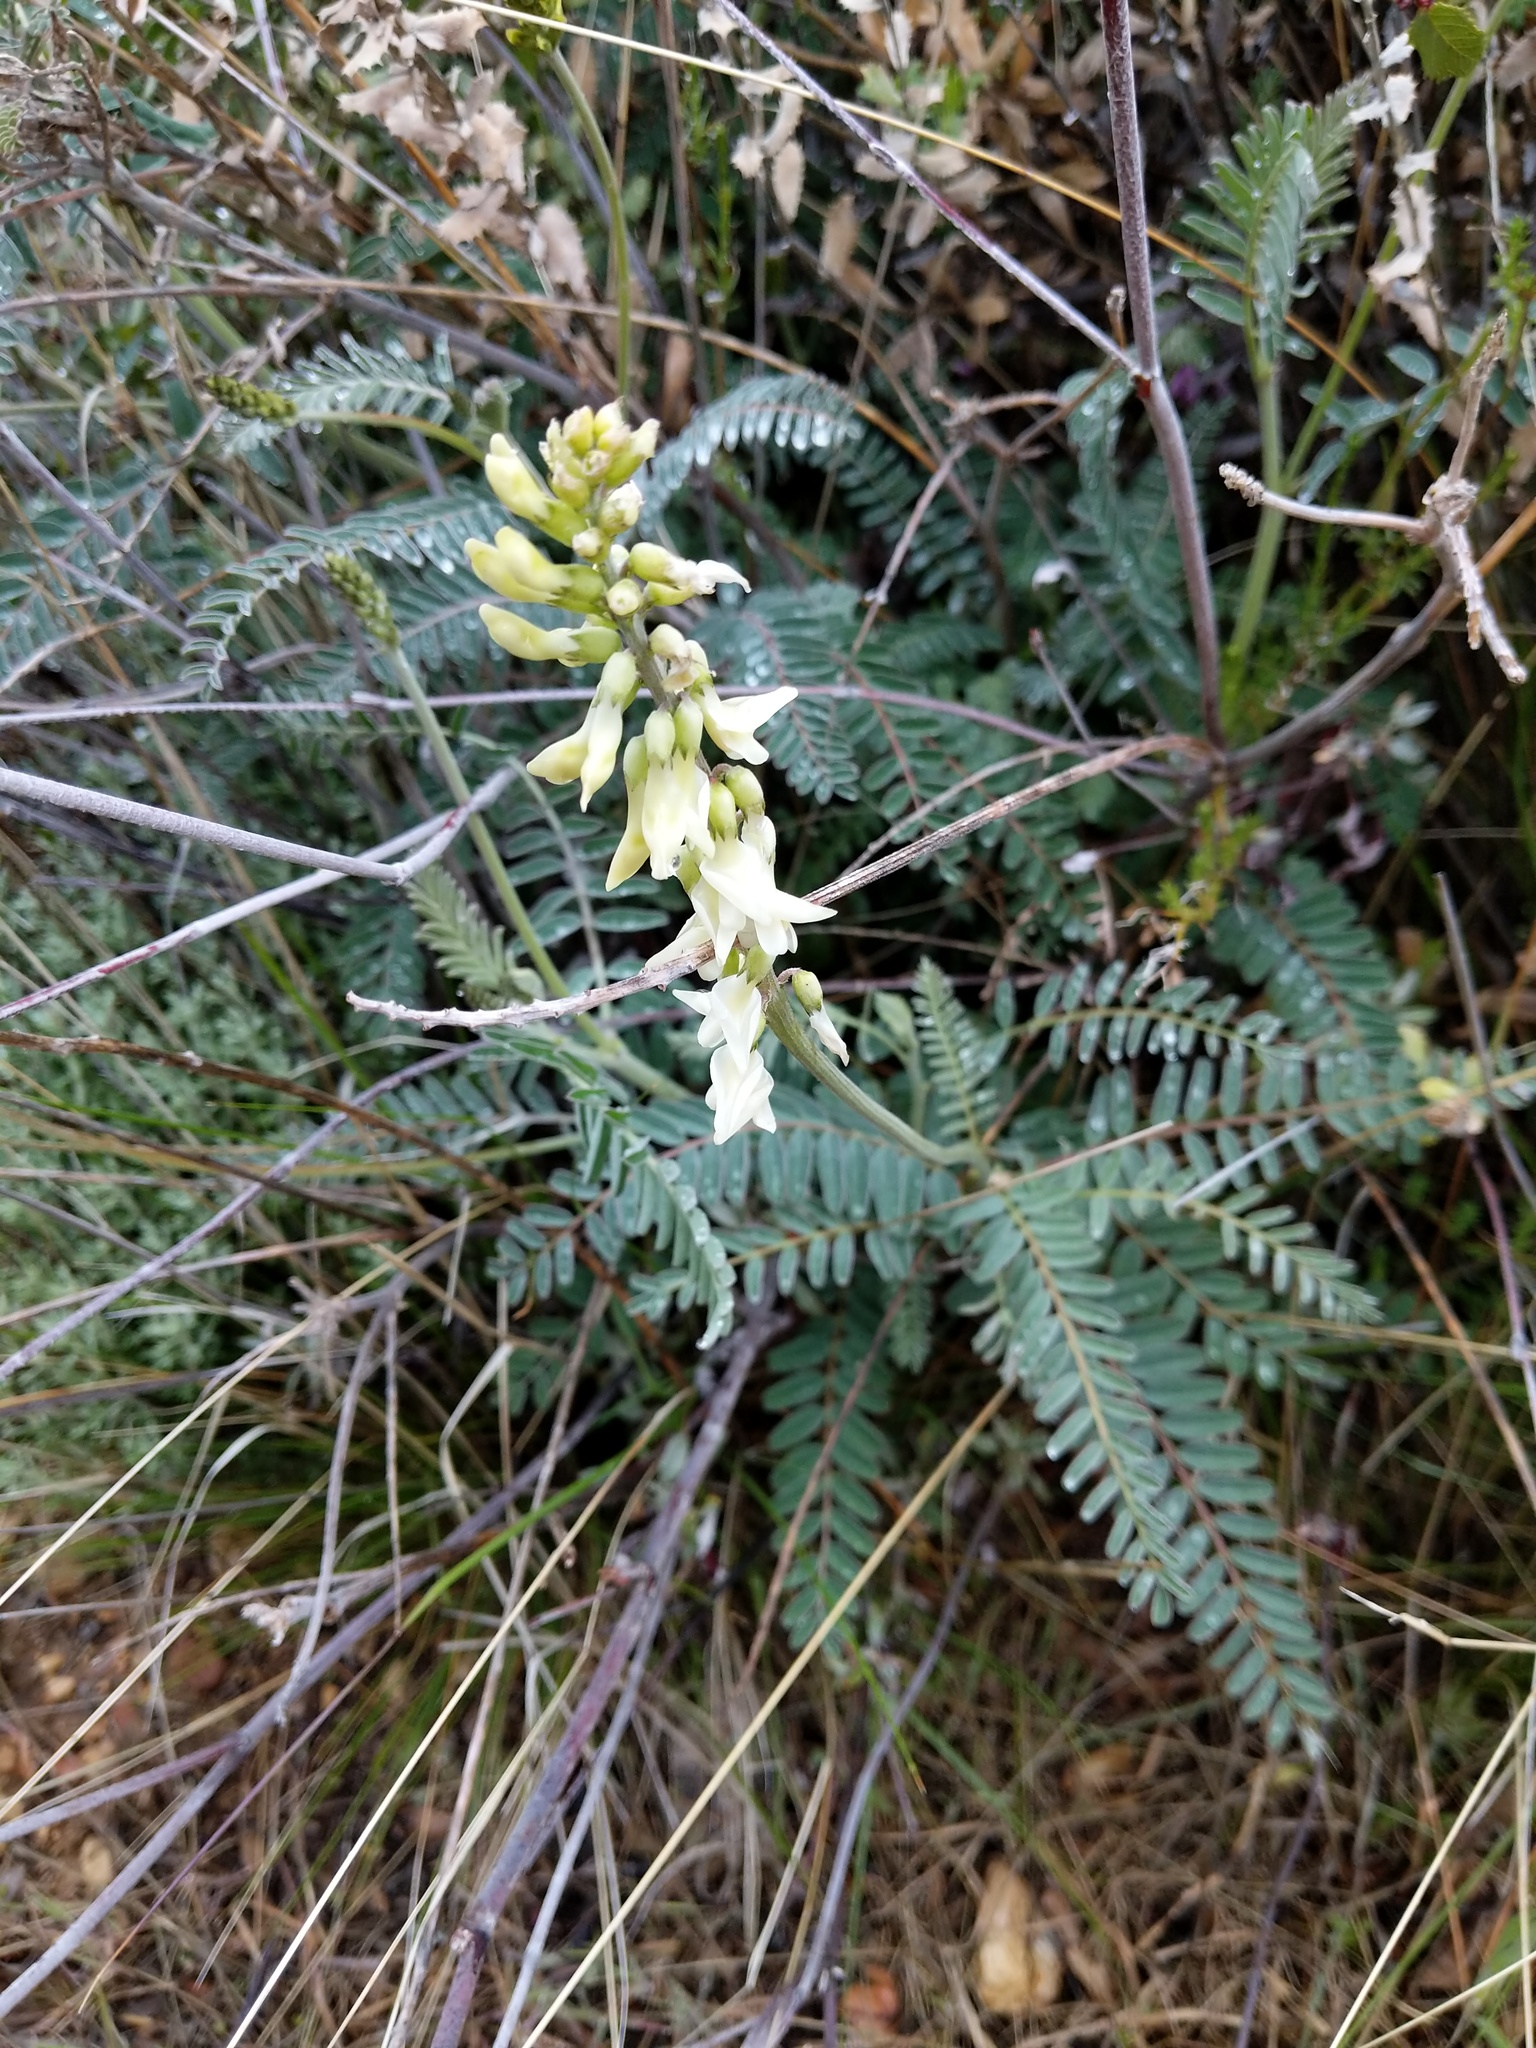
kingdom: Plantae
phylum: Tracheophyta
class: Magnoliopsida
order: Fabales
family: Fabaceae
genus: Astragalus
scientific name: Astragalus trichopodus
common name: Santa barbara milk-vetch
